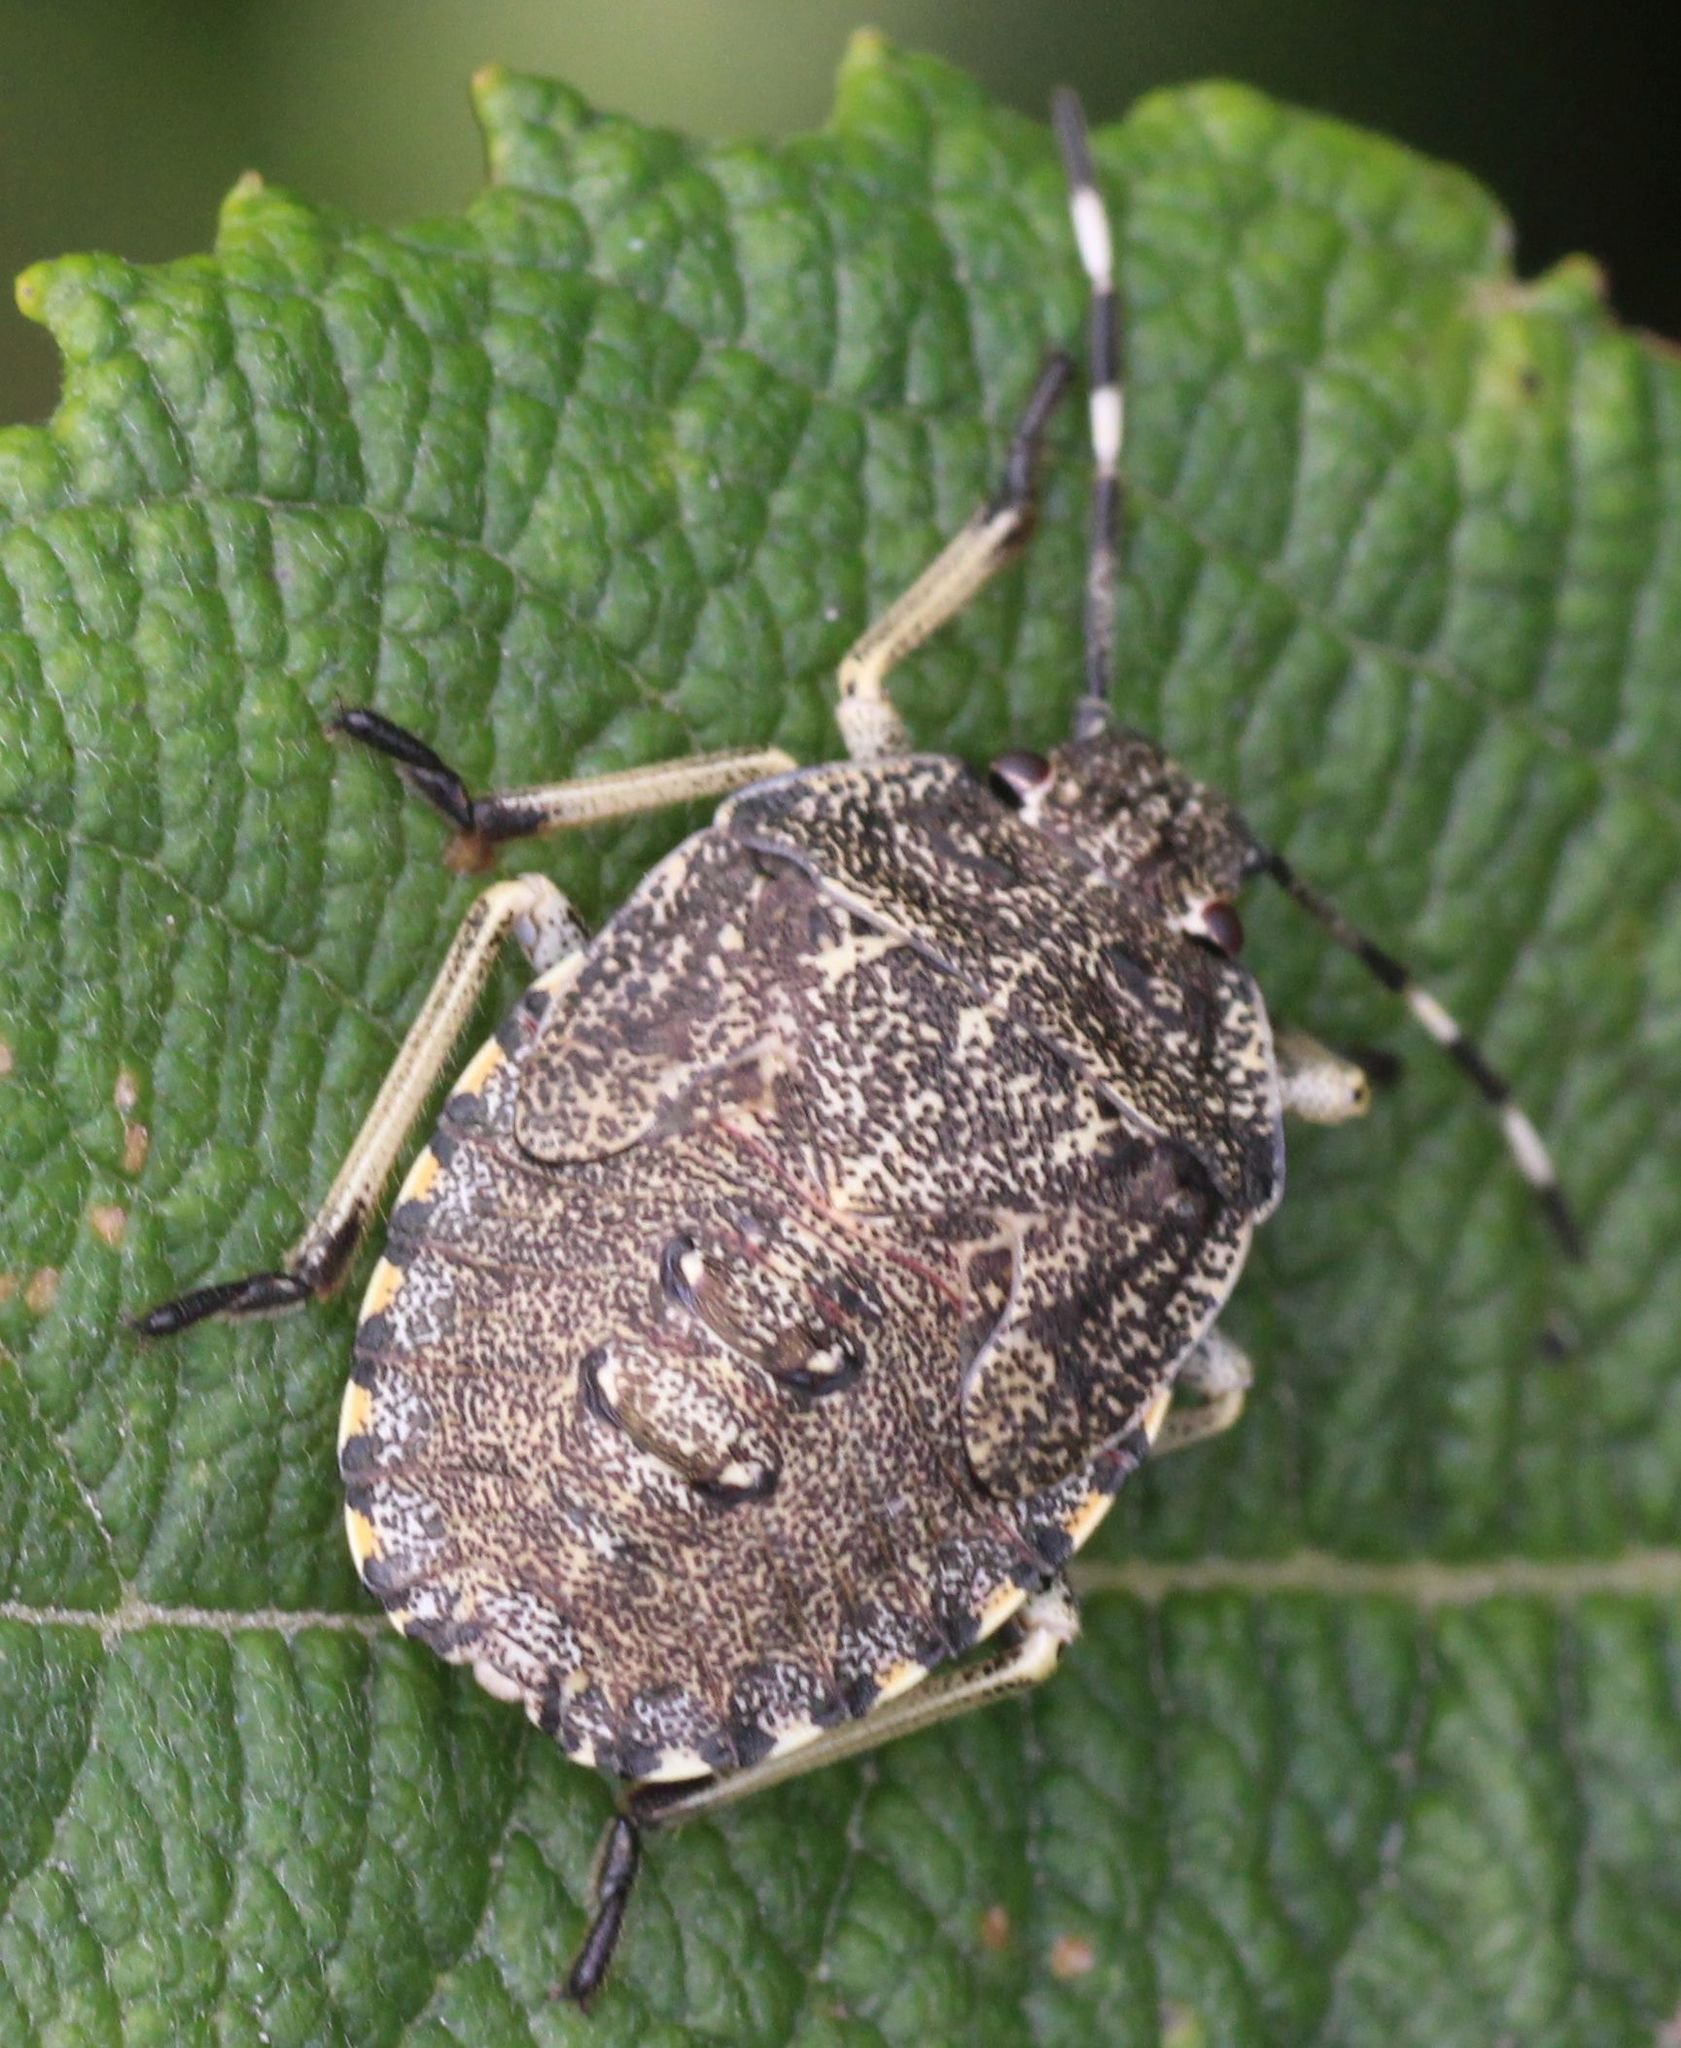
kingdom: Animalia
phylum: Arthropoda
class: Insecta
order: Hemiptera
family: Pentatomidae
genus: Rhaphigaster
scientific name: Rhaphigaster nebulosa
